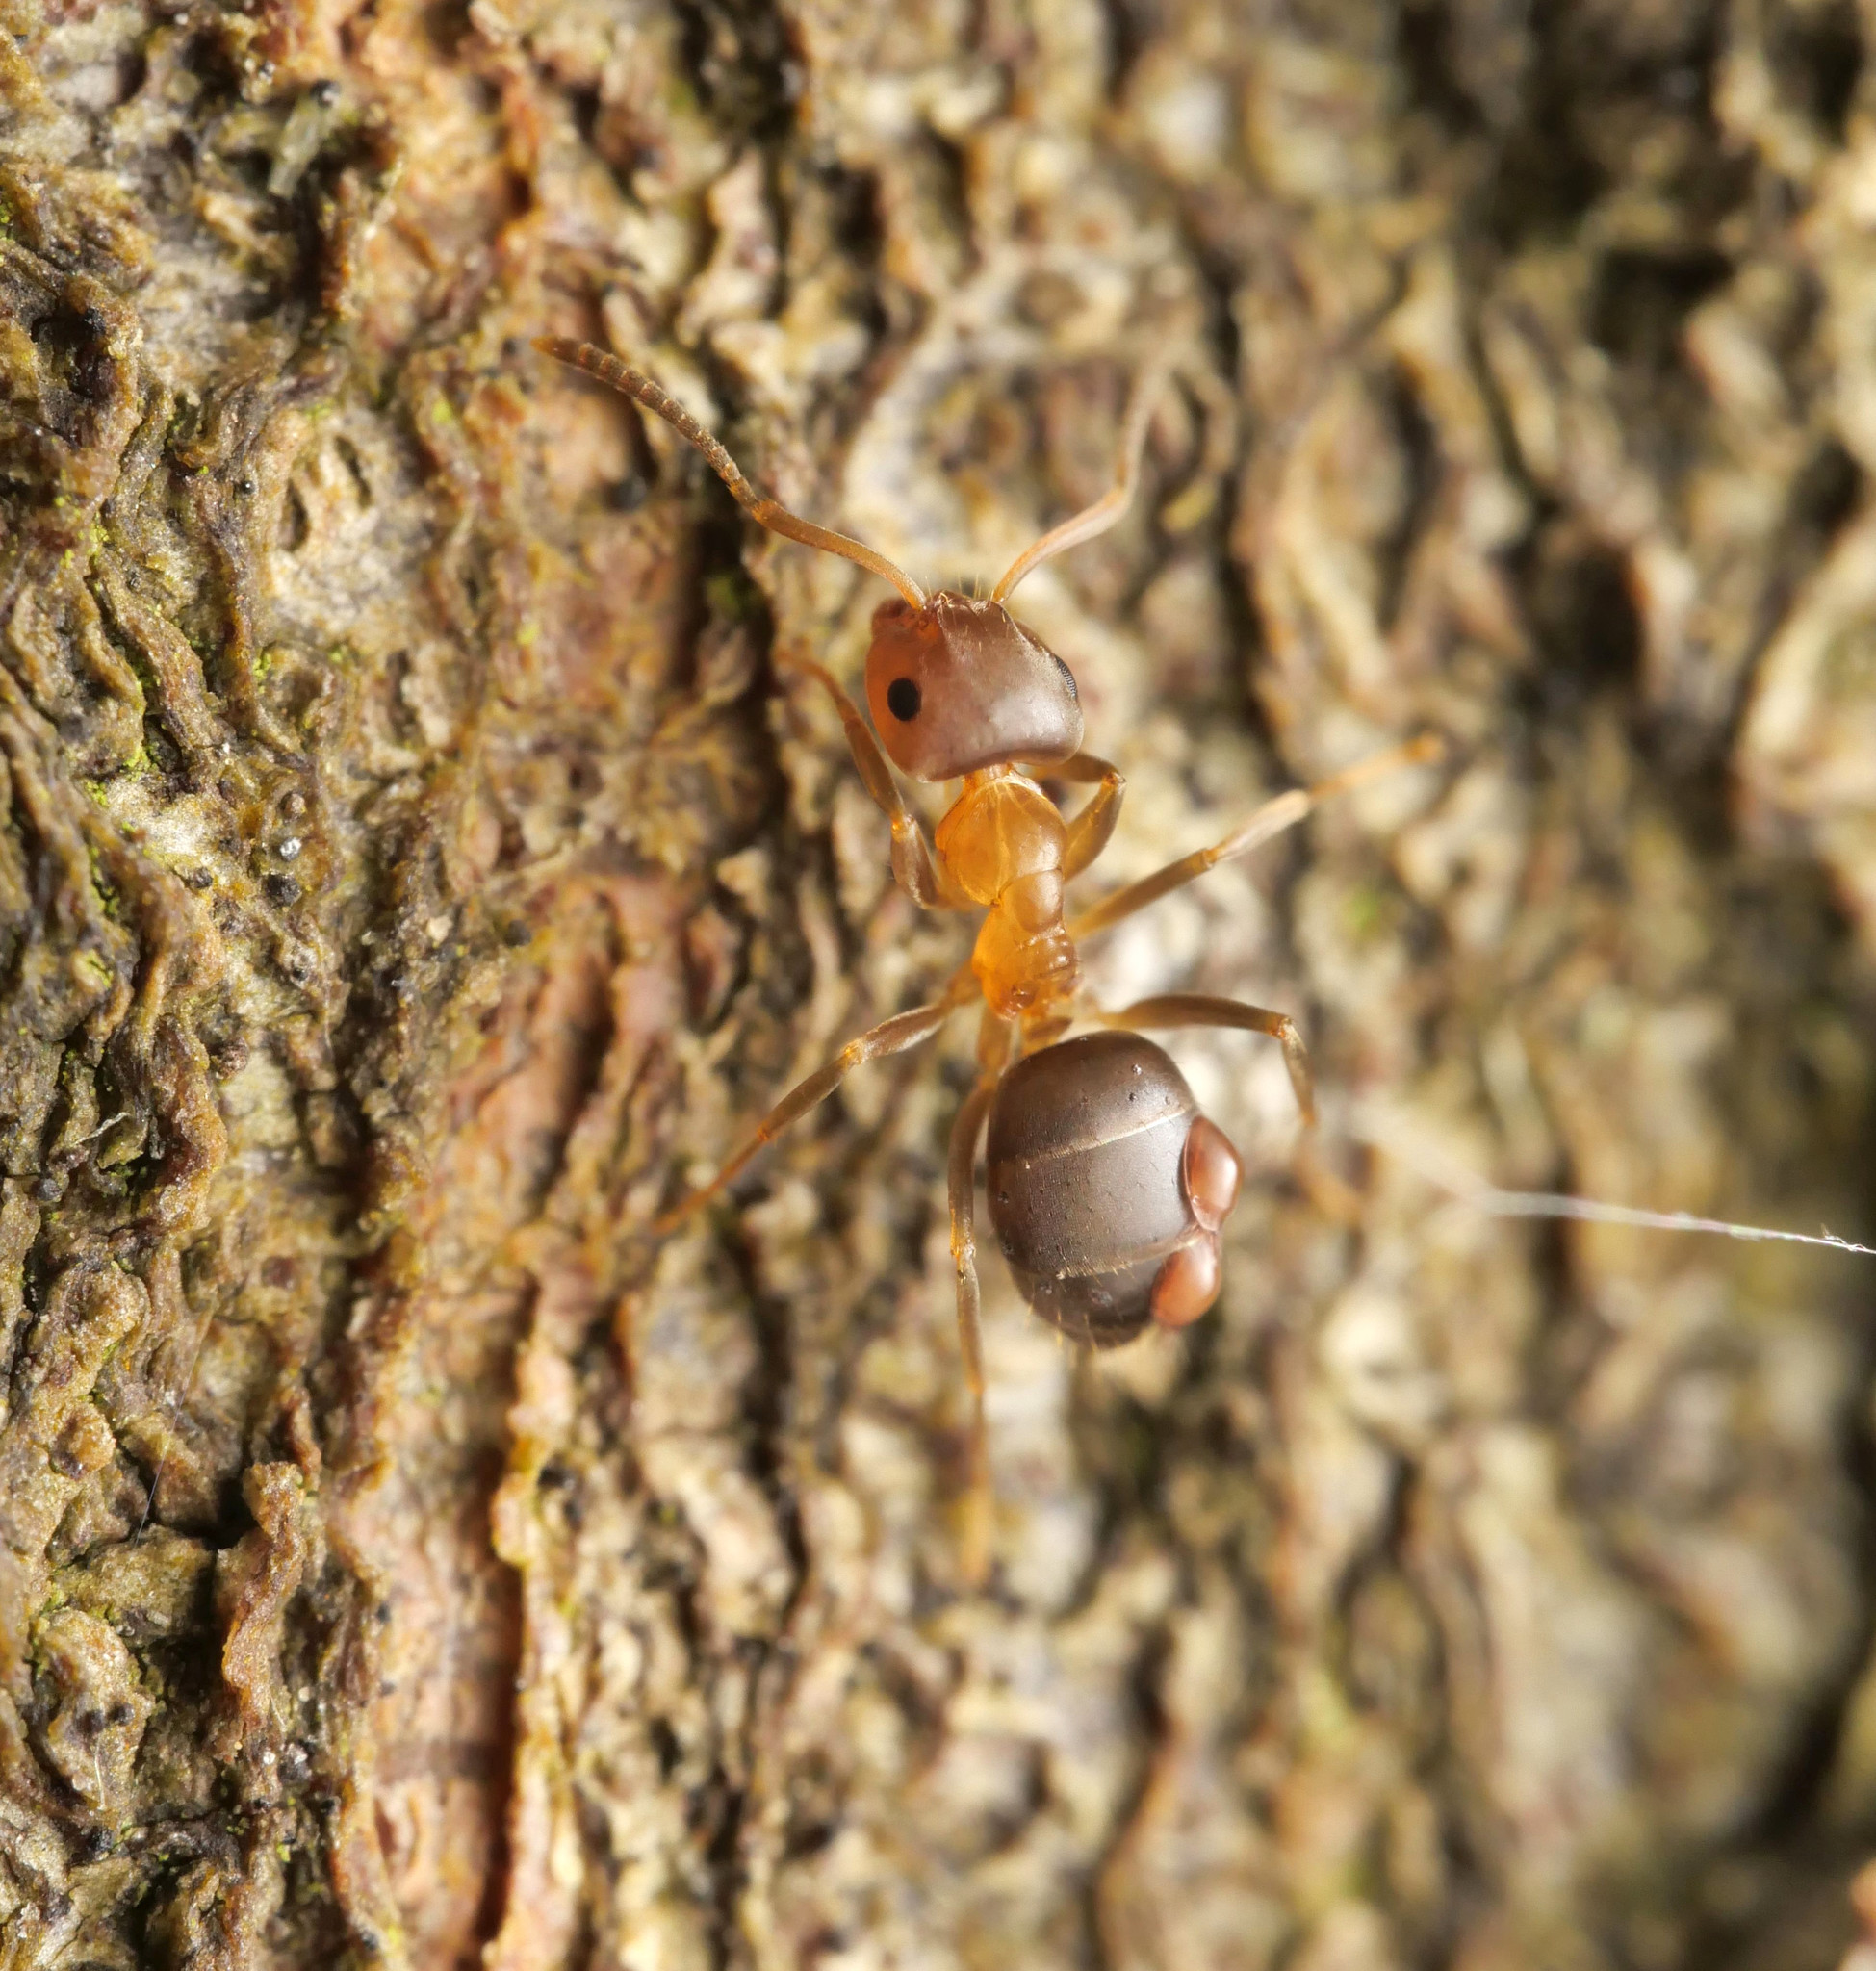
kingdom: Animalia
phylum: Arthropoda
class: Insecta
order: Hymenoptera
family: Formicidae
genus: Lasius
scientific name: Lasius brunneus
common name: Brown ant
